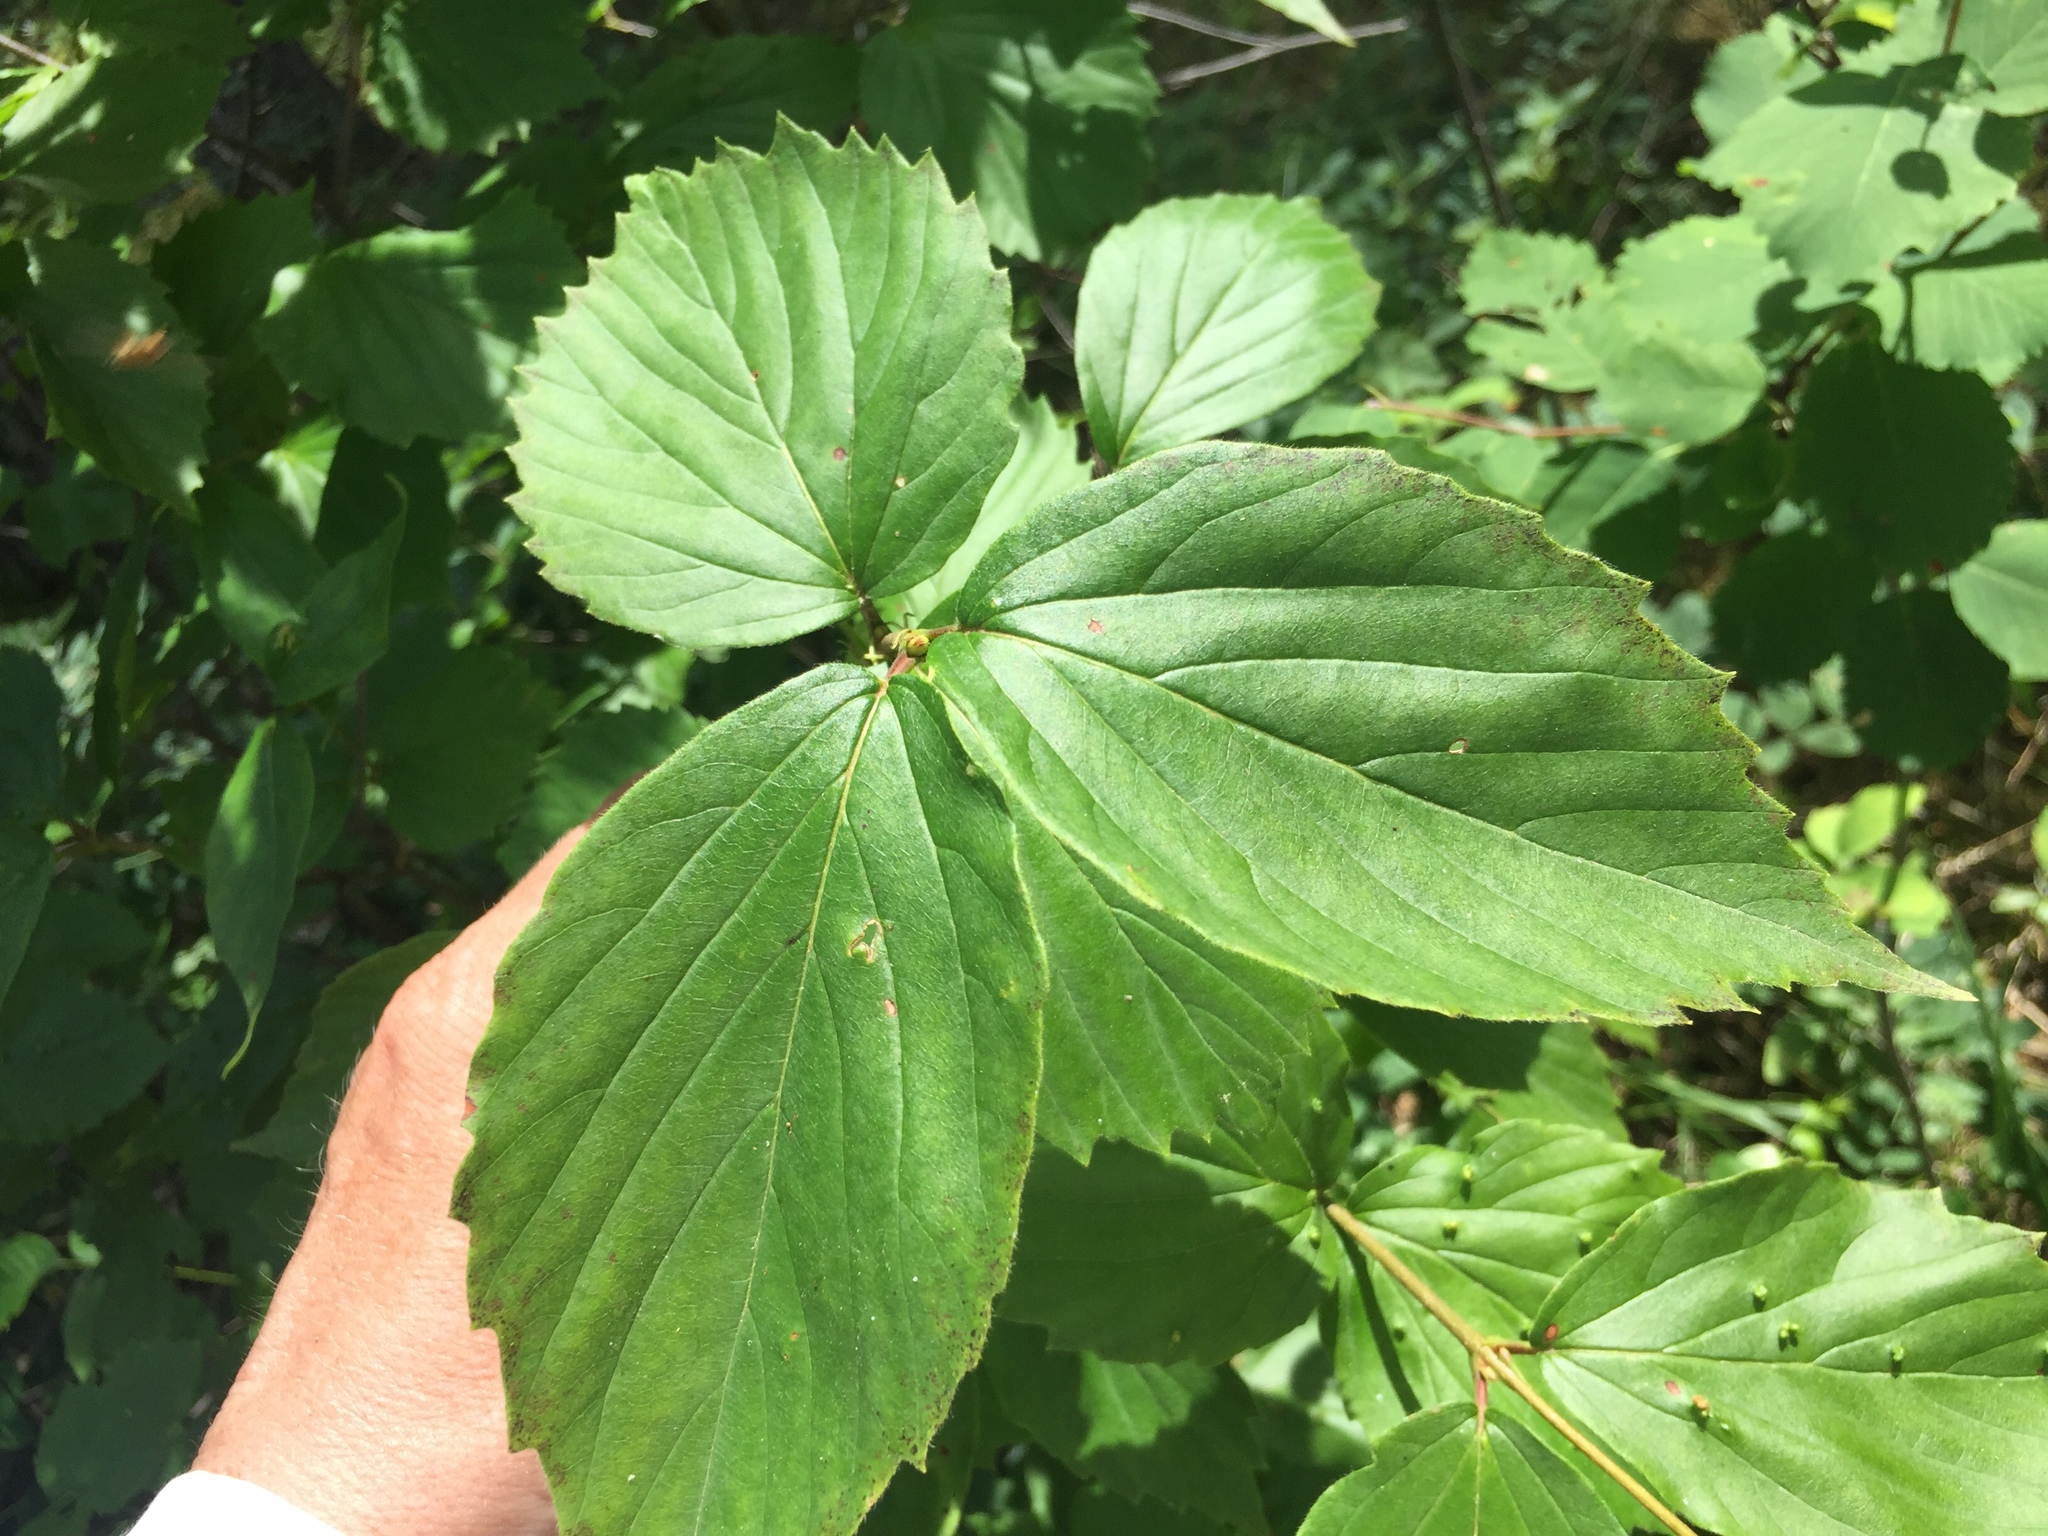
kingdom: Plantae
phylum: Tracheophyta
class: Magnoliopsida
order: Dipsacales
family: Viburnaceae
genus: Viburnum
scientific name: Viburnum rafinesqueanum
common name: Downy arrow-wood
